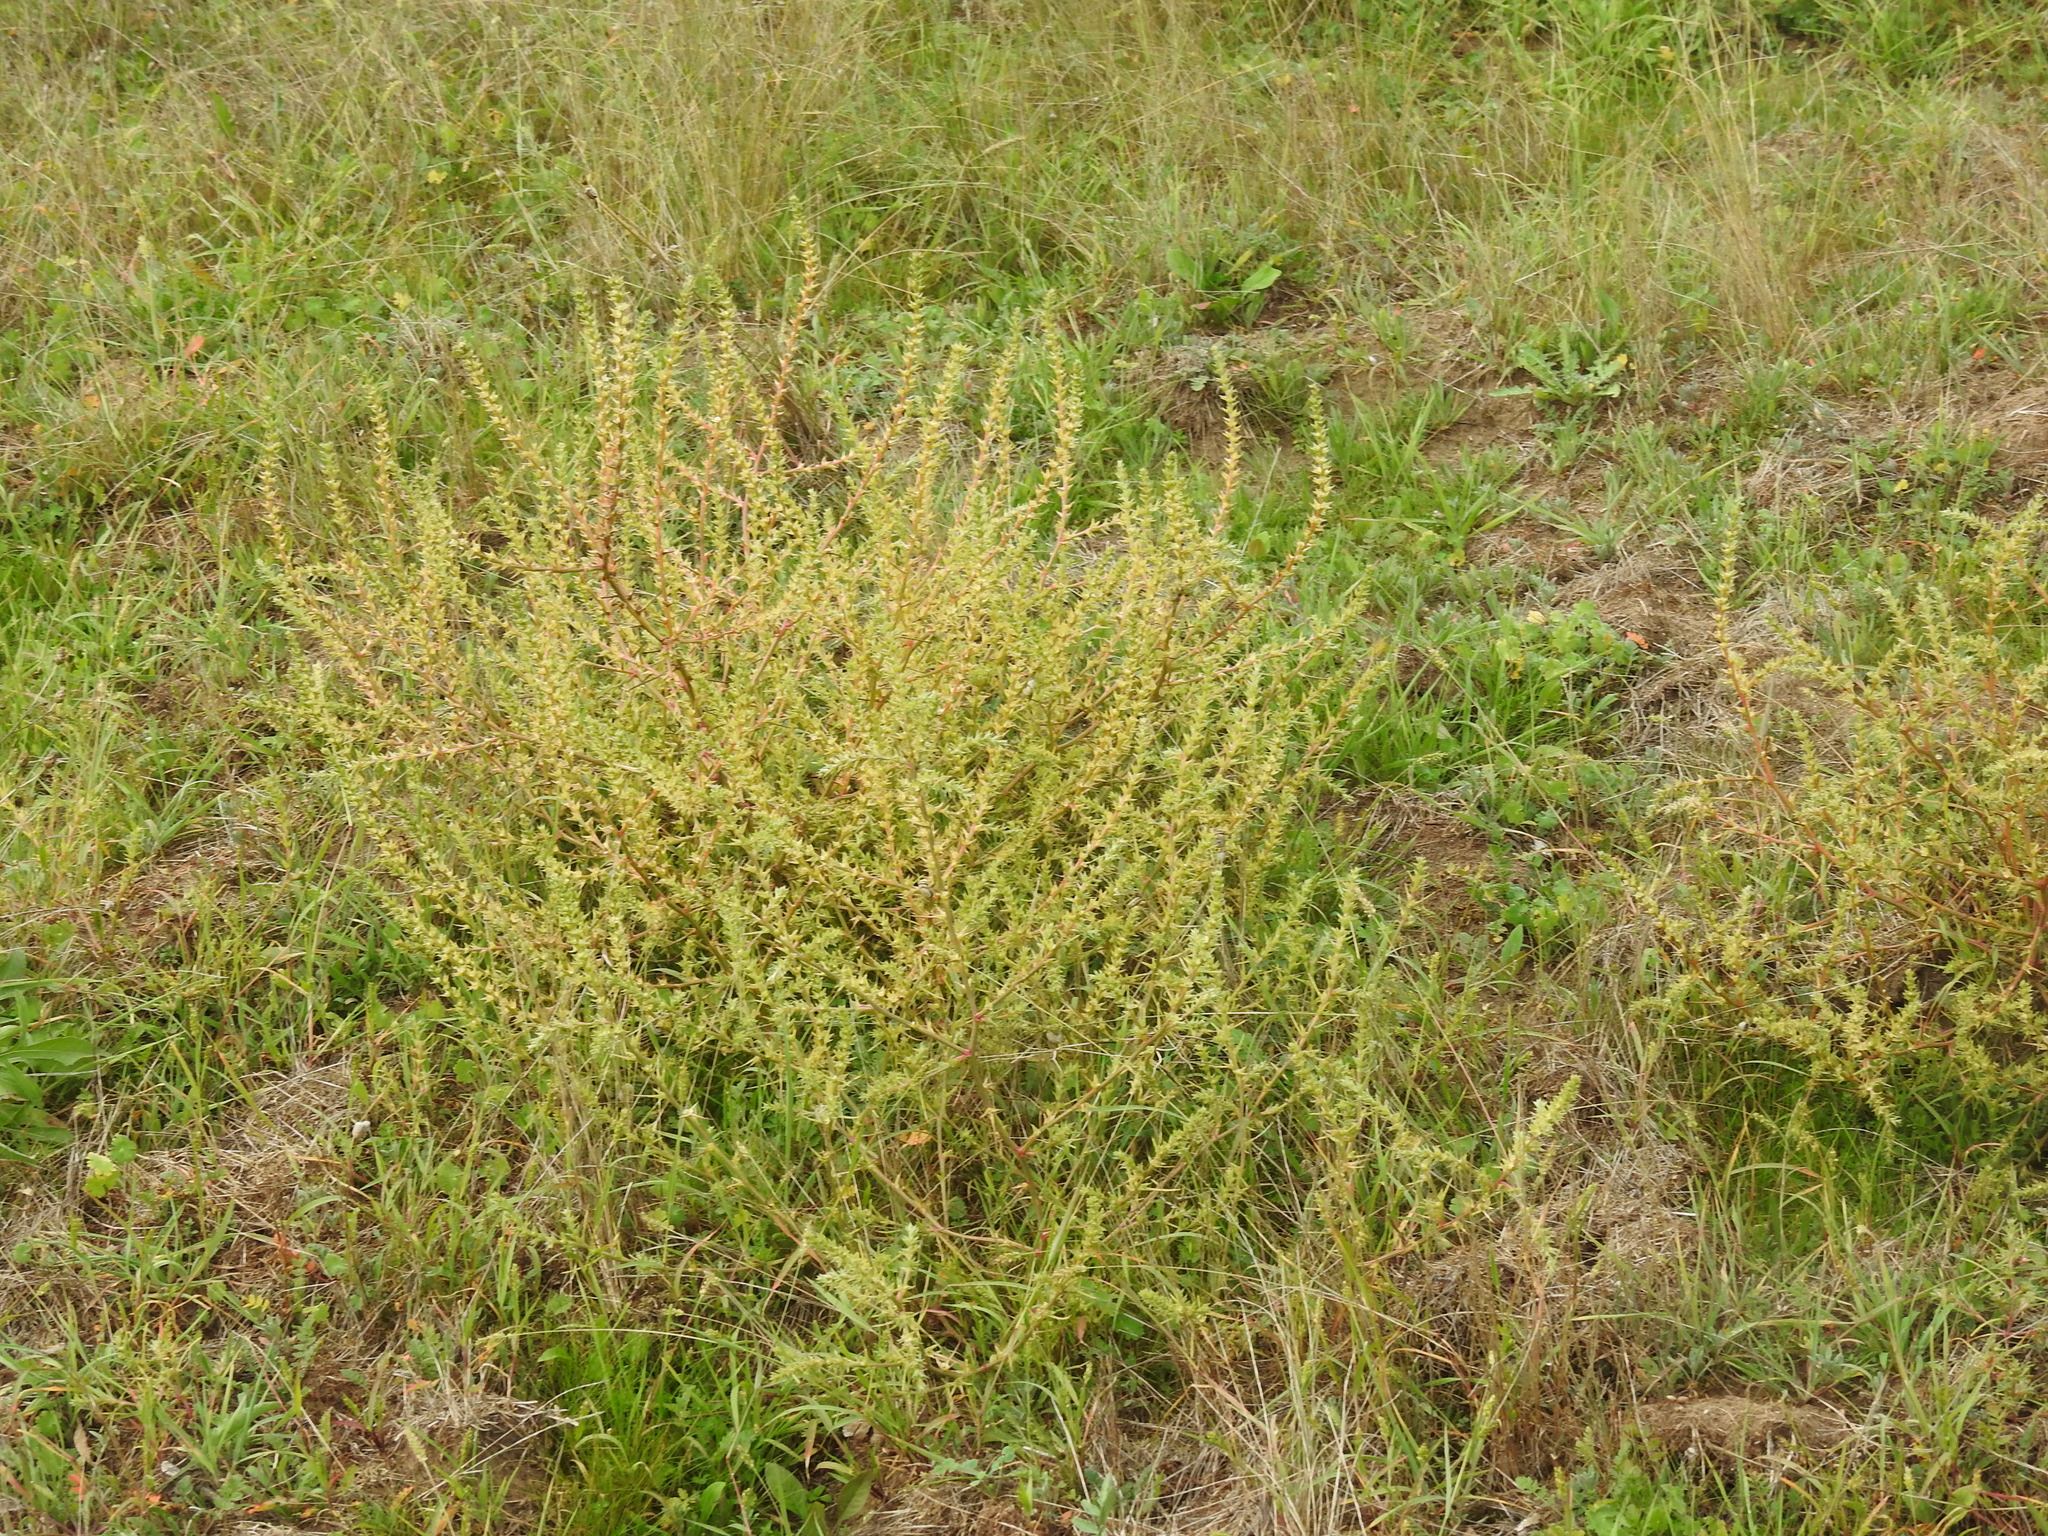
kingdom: Plantae
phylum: Tracheophyta
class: Magnoliopsida
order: Caryophyllales
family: Amaranthaceae
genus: Salsola
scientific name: Salsola kali
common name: Saltwort
